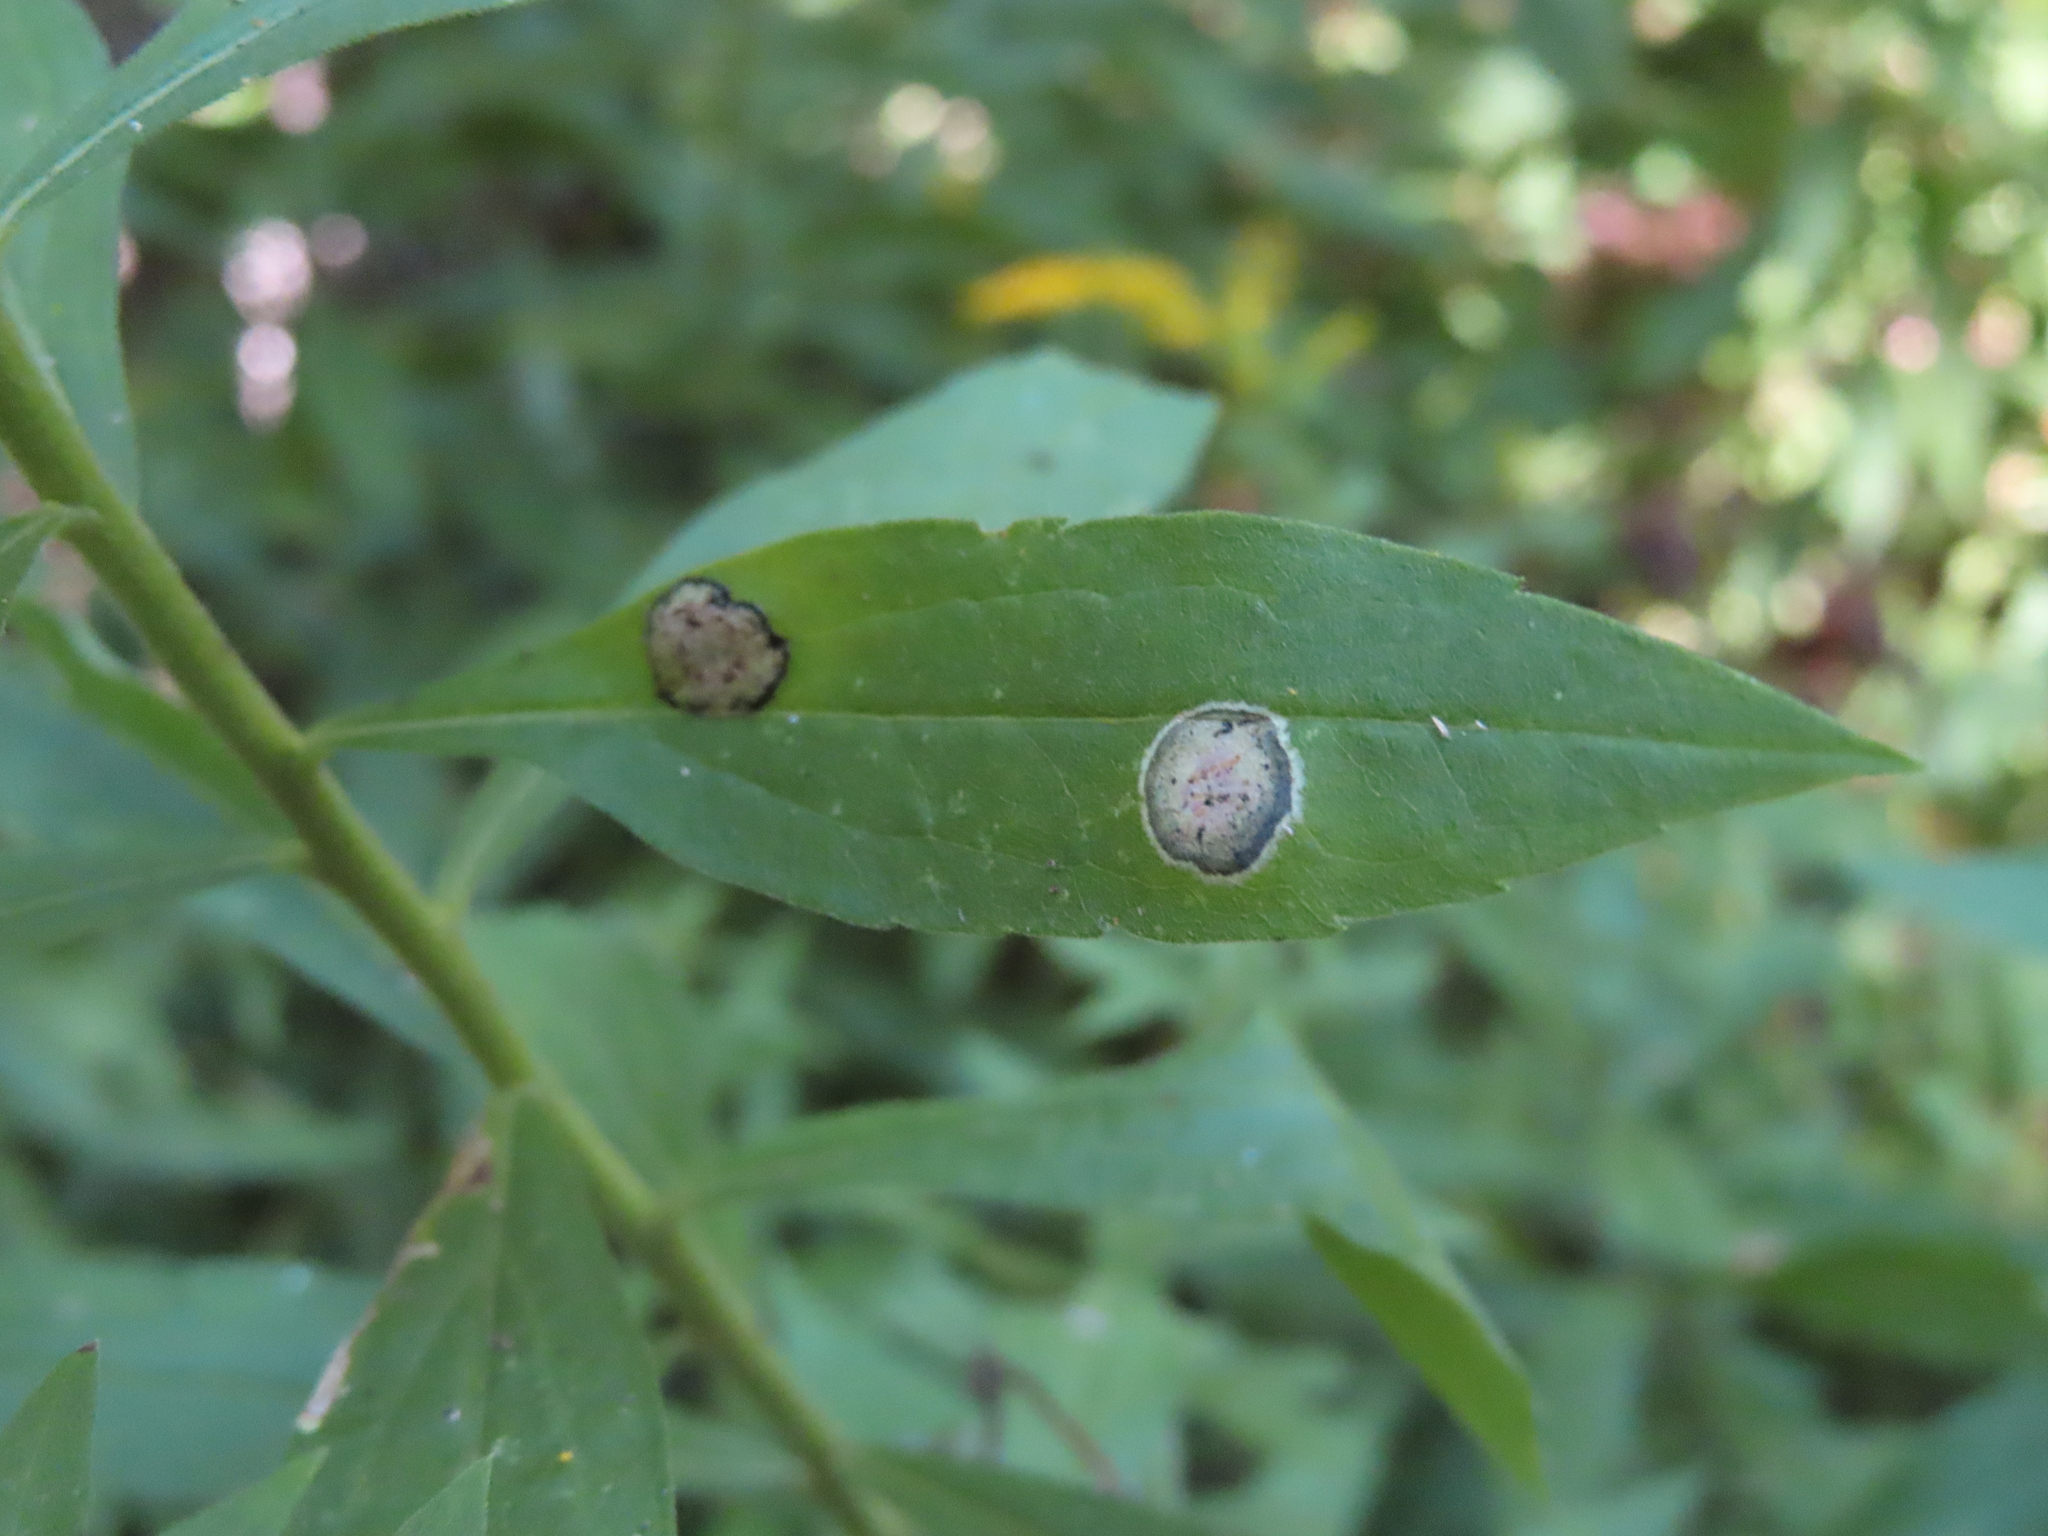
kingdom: Animalia
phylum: Arthropoda
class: Insecta
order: Diptera
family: Cecidomyiidae
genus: Asteromyia
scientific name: Asteromyia carbonifera
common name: Carbonifera goldenrod gall midge
